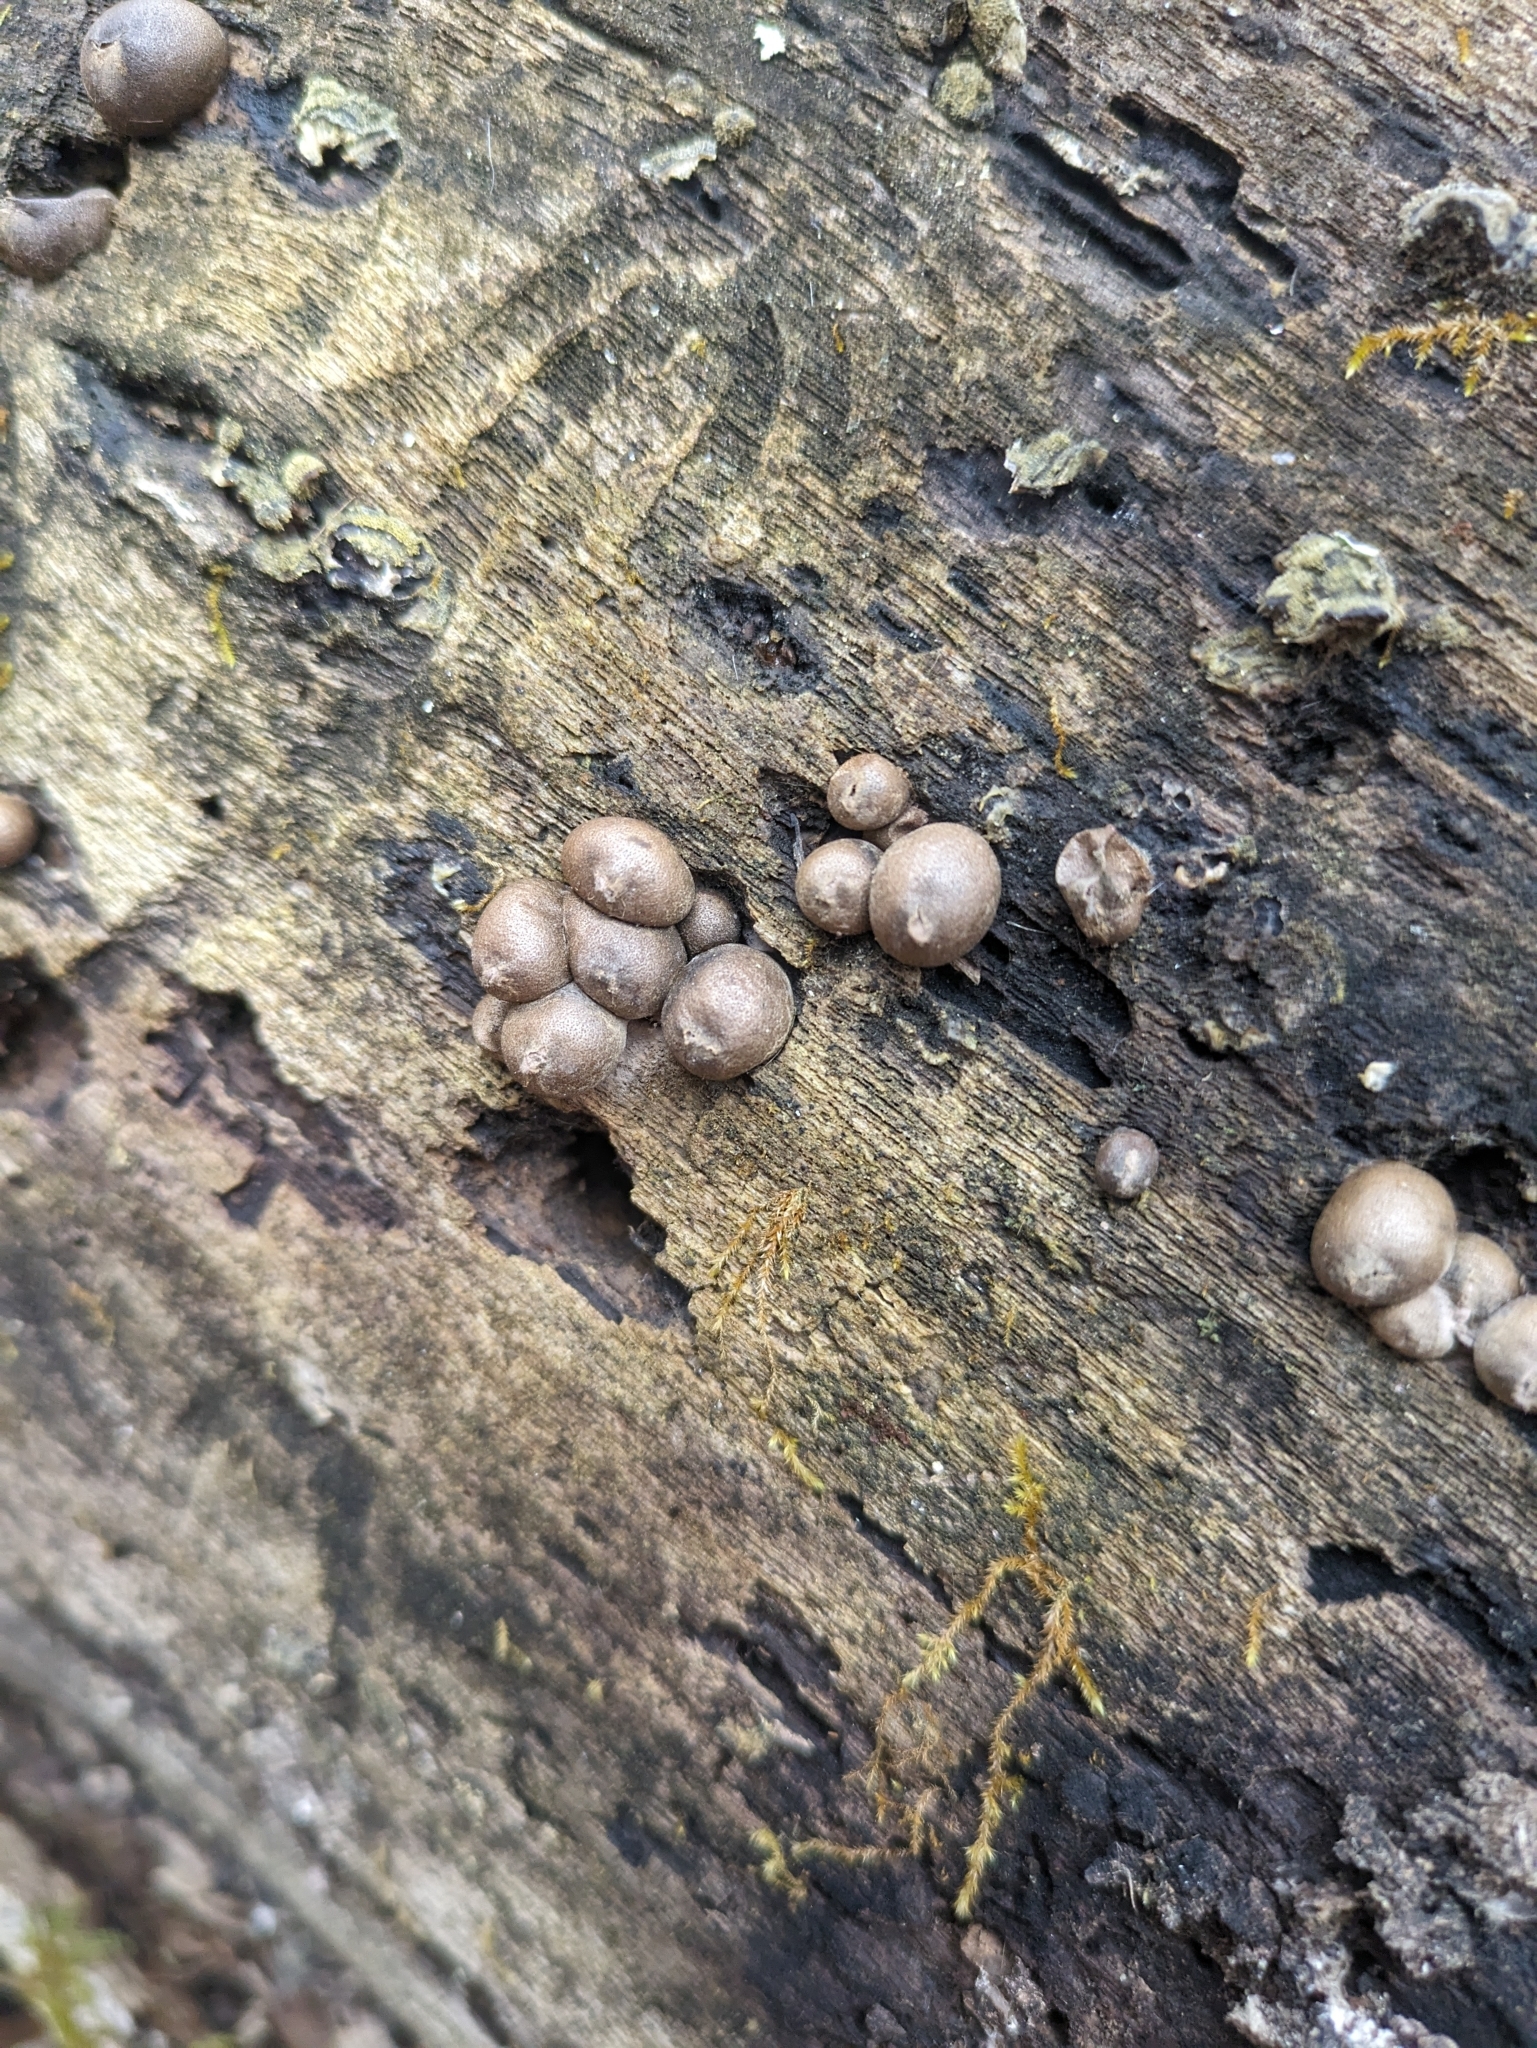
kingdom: Protozoa
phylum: Mycetozoa
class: Myxomycetes
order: Cribrariales
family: Tubiferaceae
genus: Lycogala
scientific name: Lycogala epidendrum
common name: Wolf's milk
